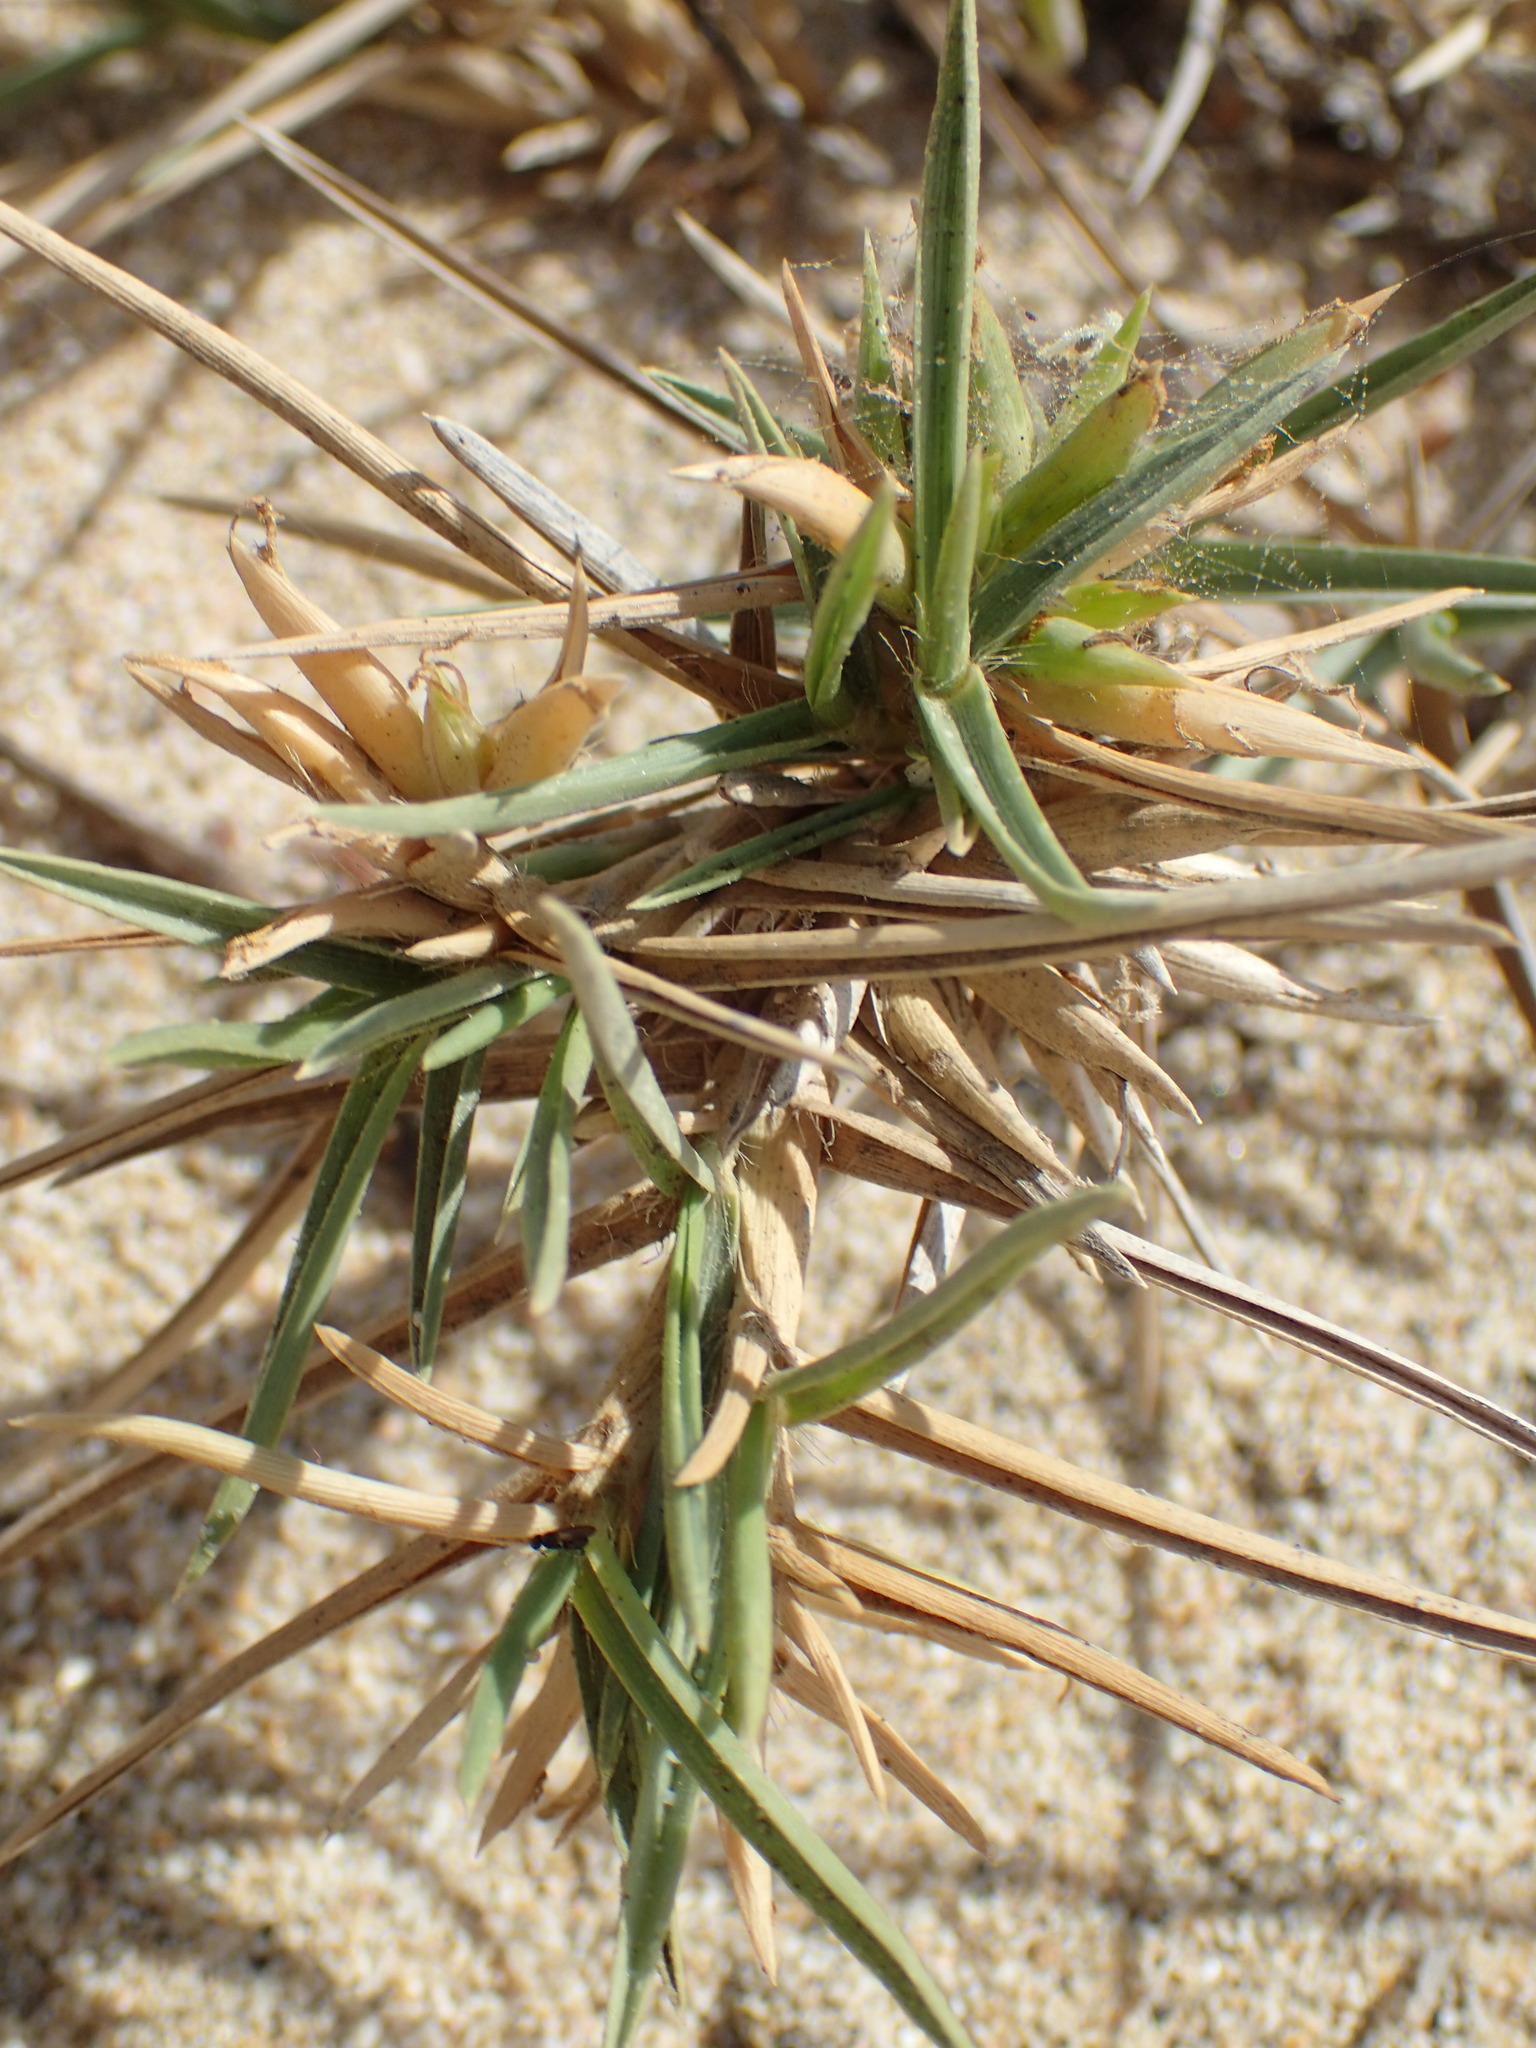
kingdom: Plantae
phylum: Tracheophyta
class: Liliopsida
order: Poales
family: Poaceae
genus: Jouvea
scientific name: Jouvea pilosa
